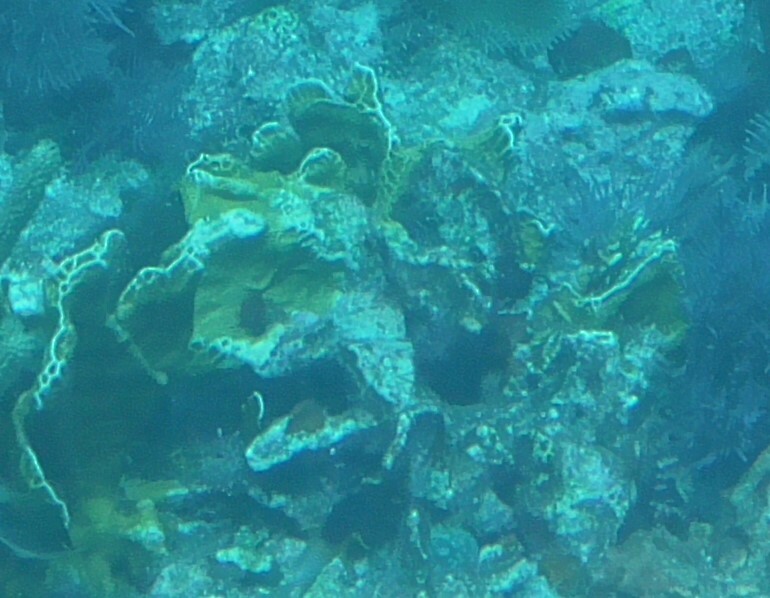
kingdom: Animalia
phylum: Cnidaria
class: Hydrozoa
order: Anthoathecata
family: Milleporidae
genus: Millepora
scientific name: Millepora squarrosa
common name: Crustal fire coral
